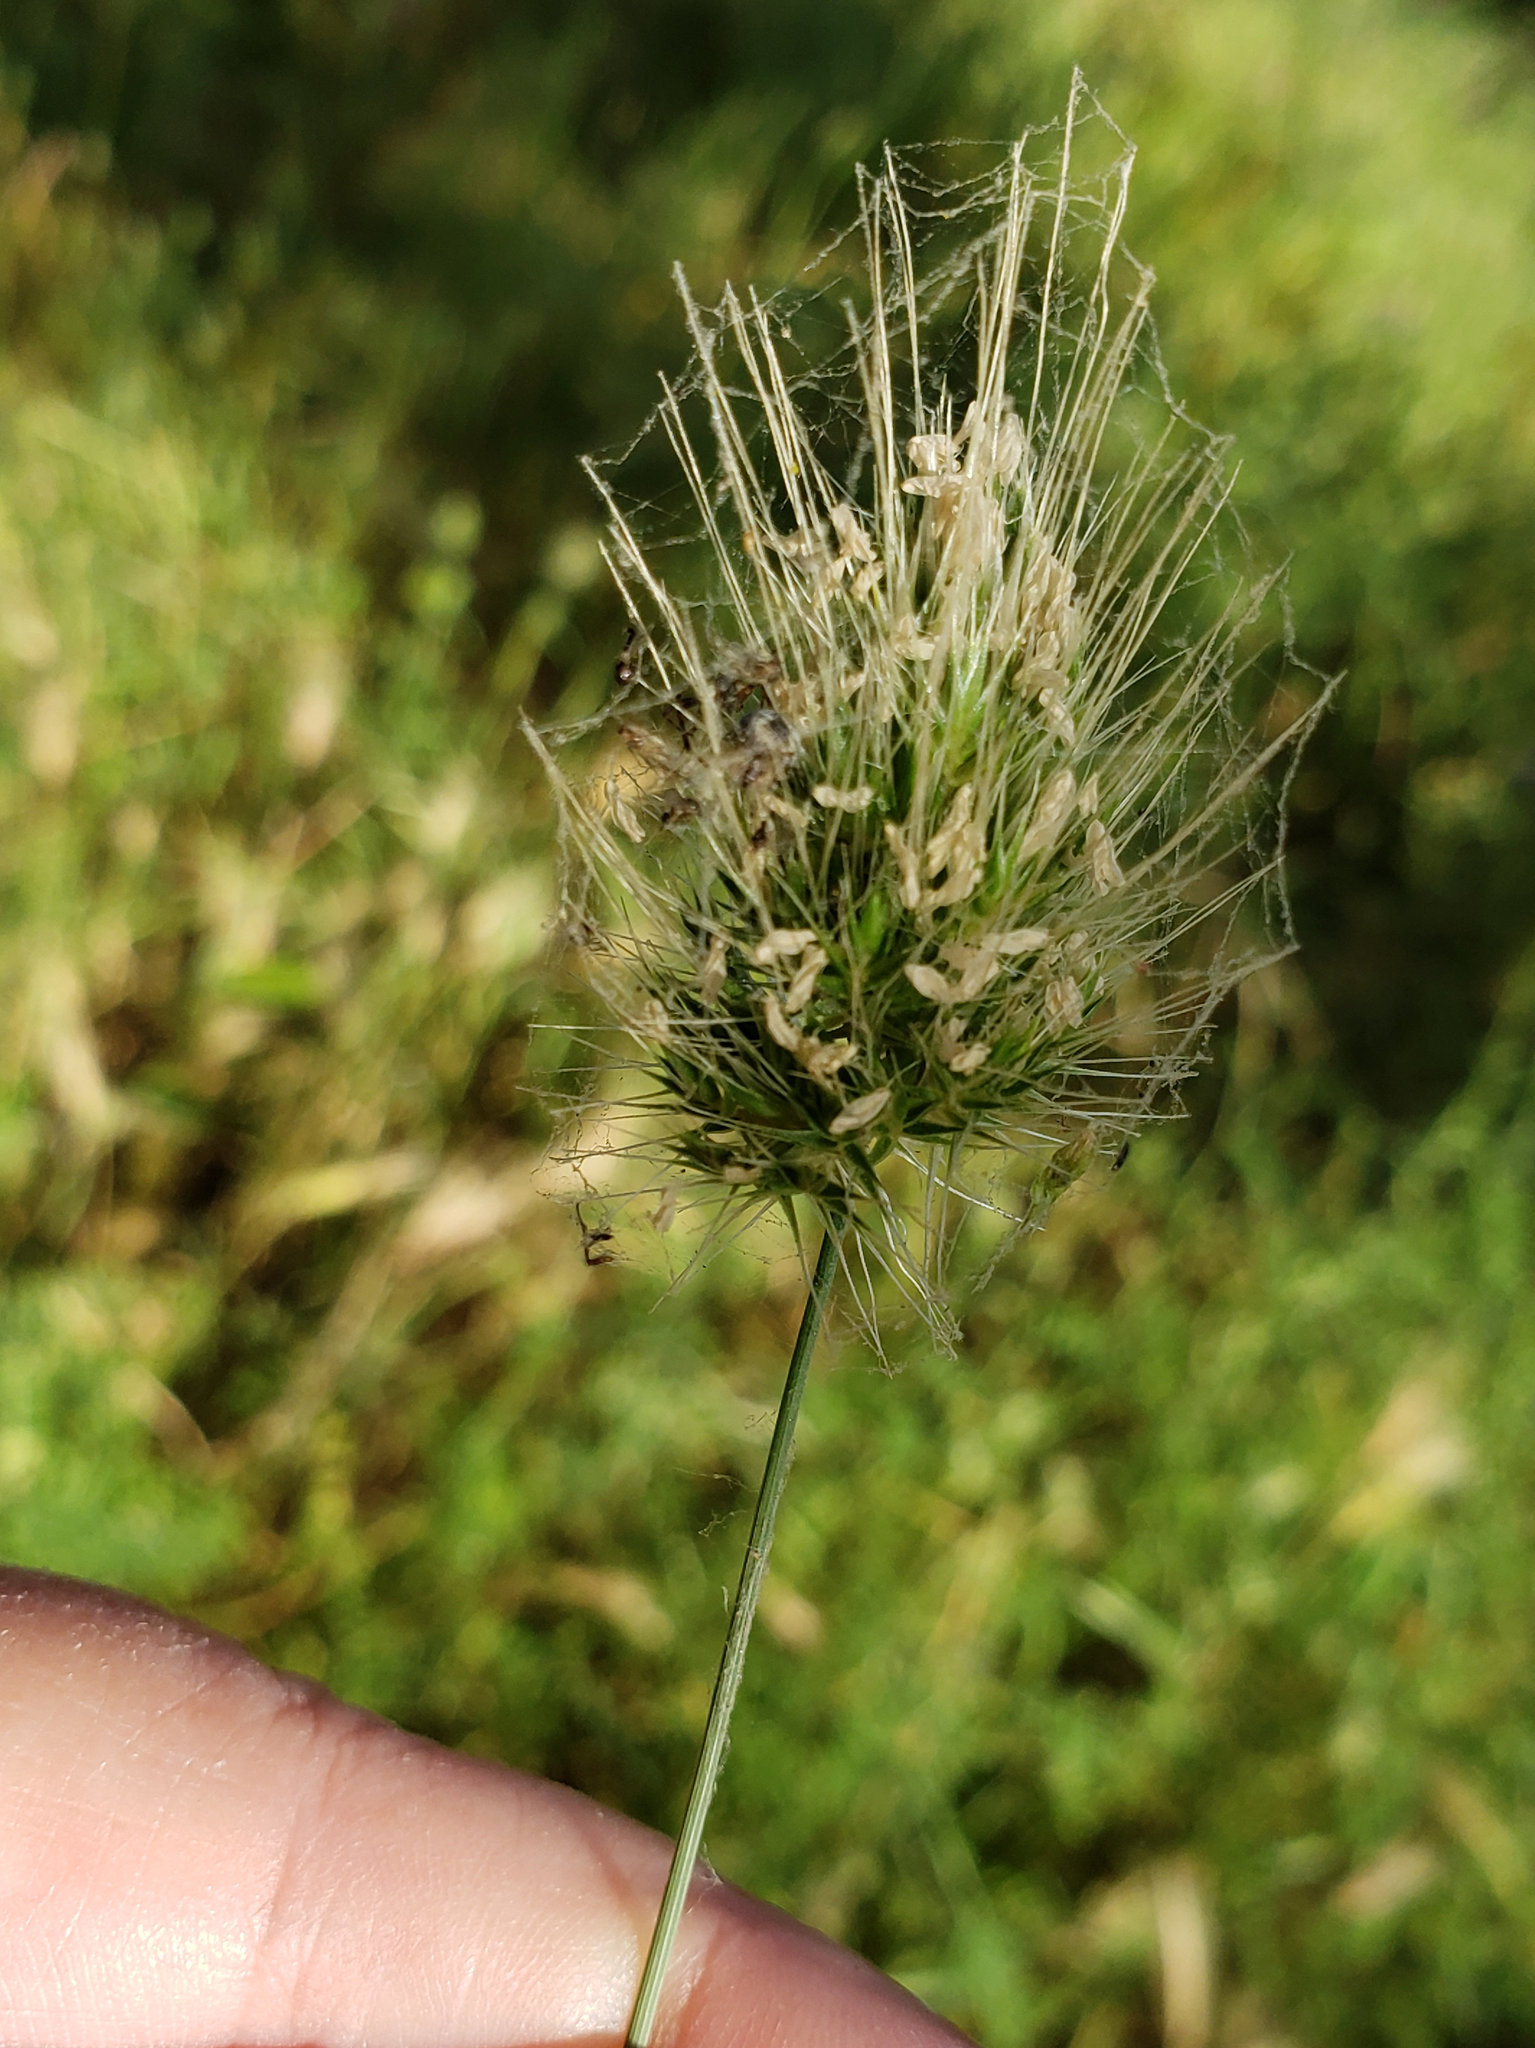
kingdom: Plantae
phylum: Tracheophyta
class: Liliopsida
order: Poales
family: Poaceae
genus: Cynosurus
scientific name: Cynosurus echinatus
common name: Rough dog's-tail
